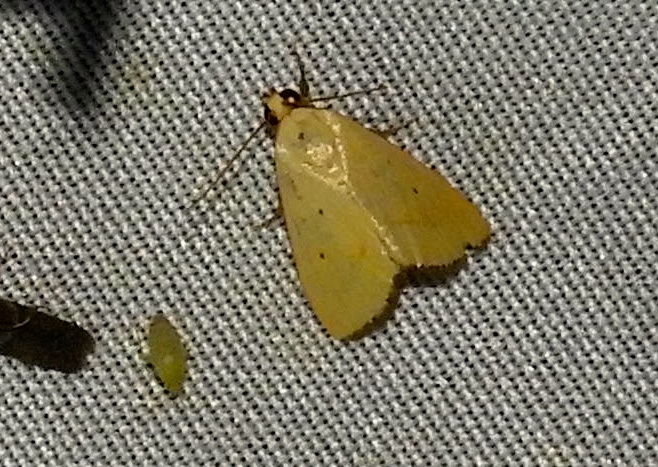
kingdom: Animalia
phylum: Arthropoda
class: Insecta
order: Lepidoptera
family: Noctuidae
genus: Marimatha
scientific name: Marimatha
